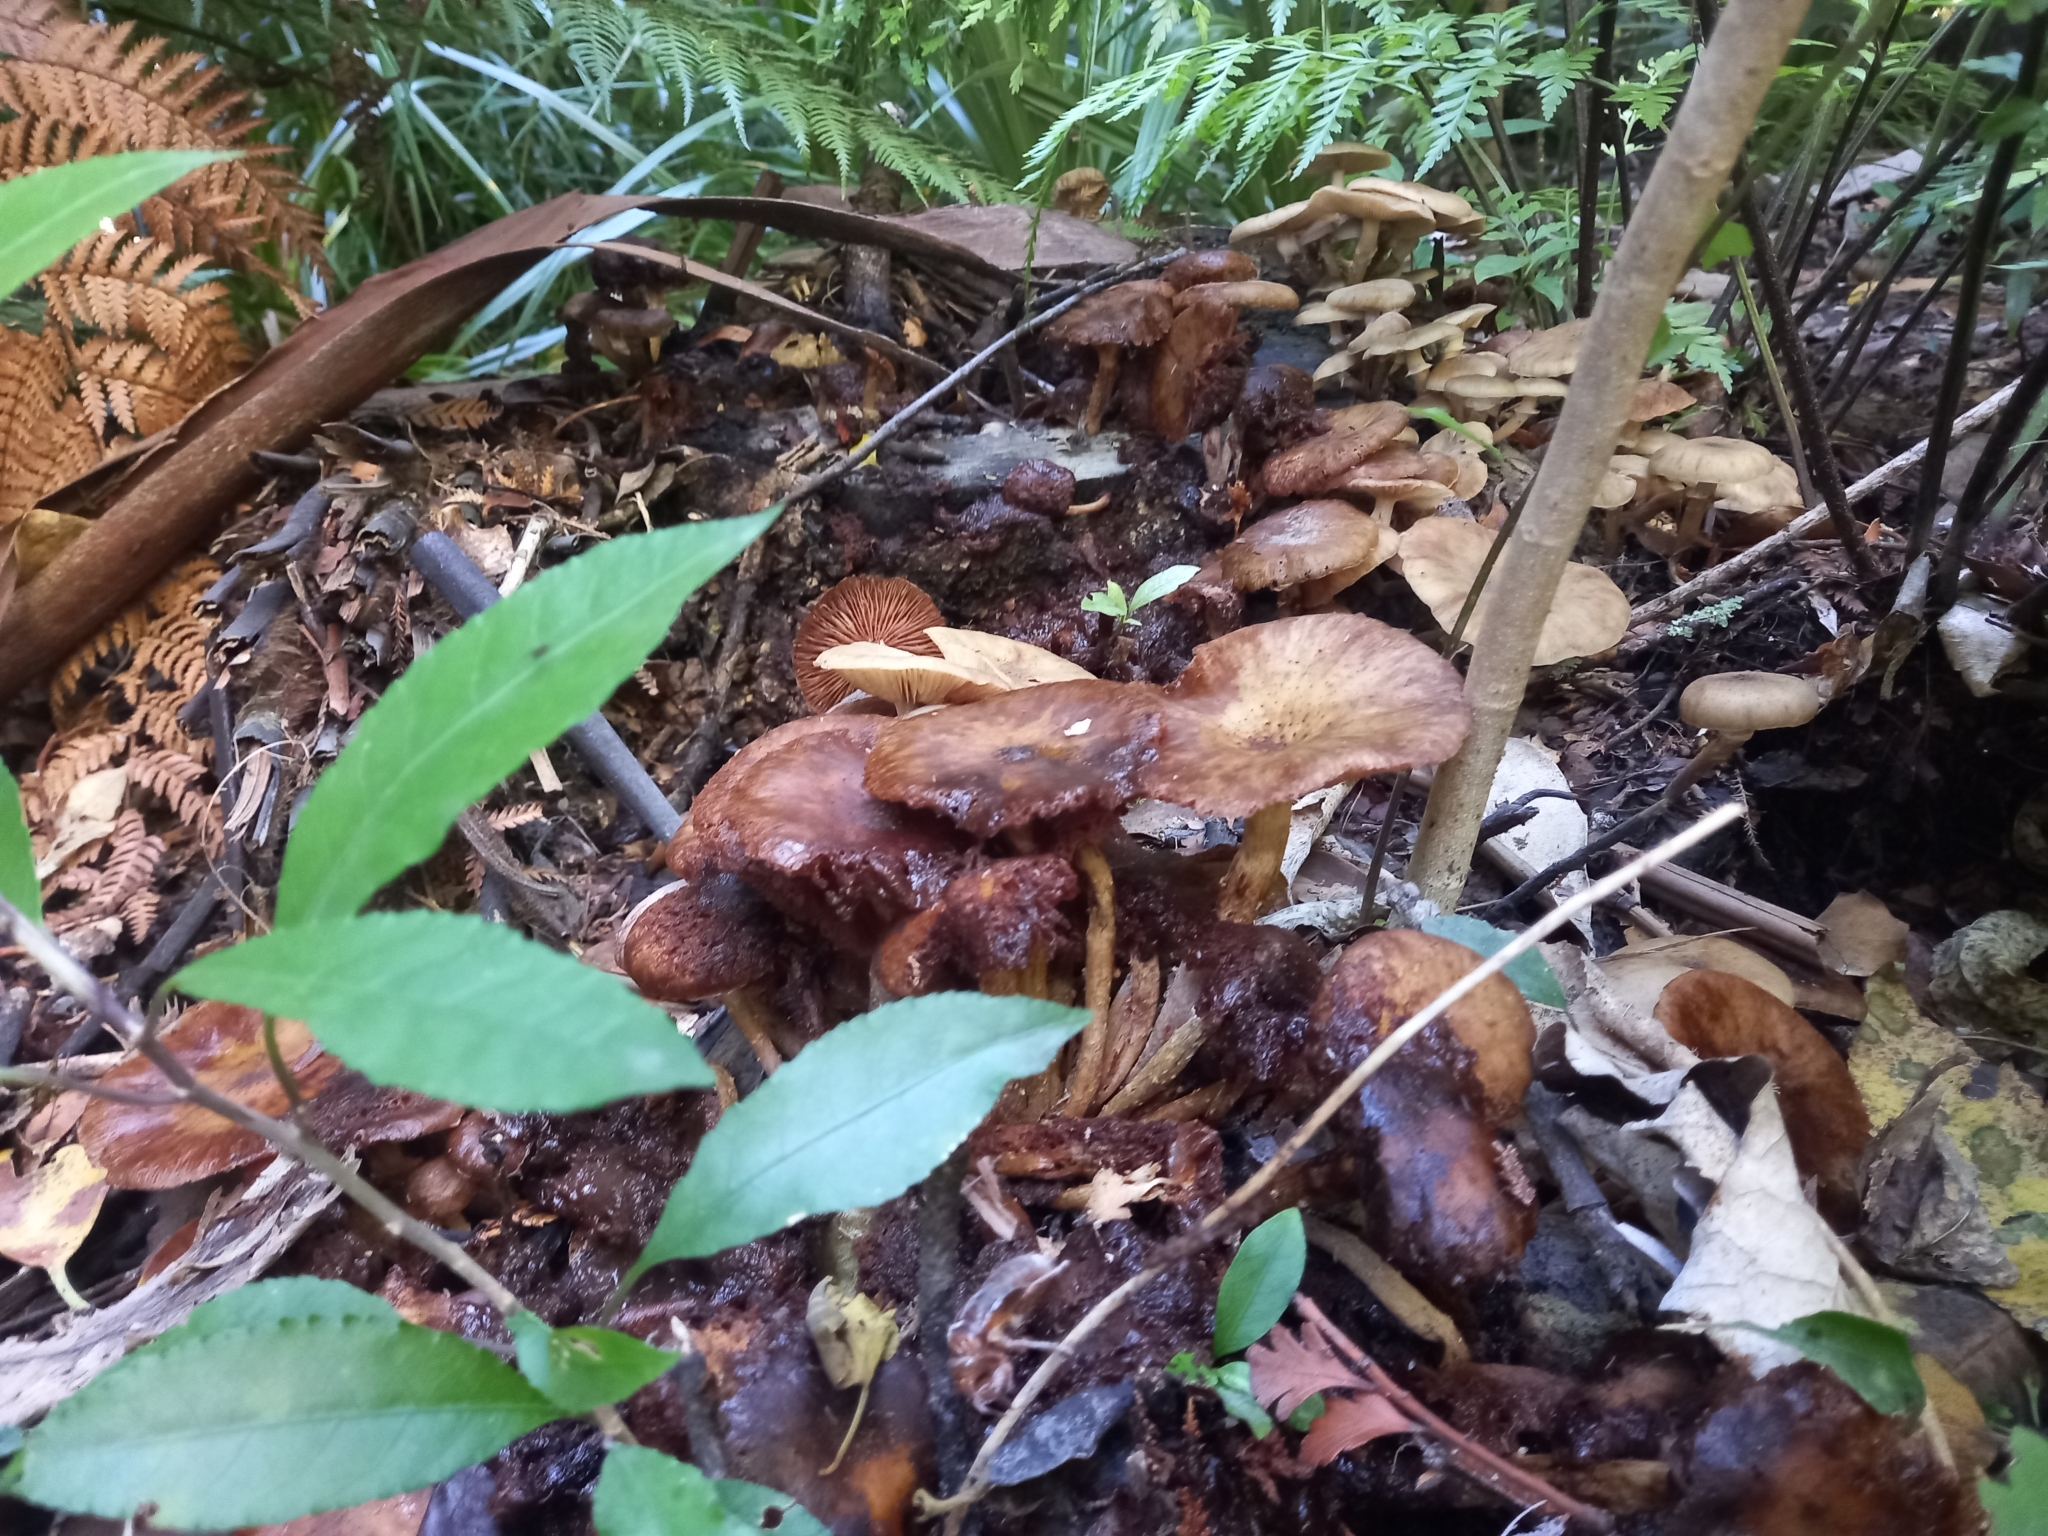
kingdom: Fungi
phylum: Basidiomycota
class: Agaricomycetes
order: Agaricales
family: Physalacriaceae
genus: Armillaria
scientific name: Armillaria novae-zelandiae
